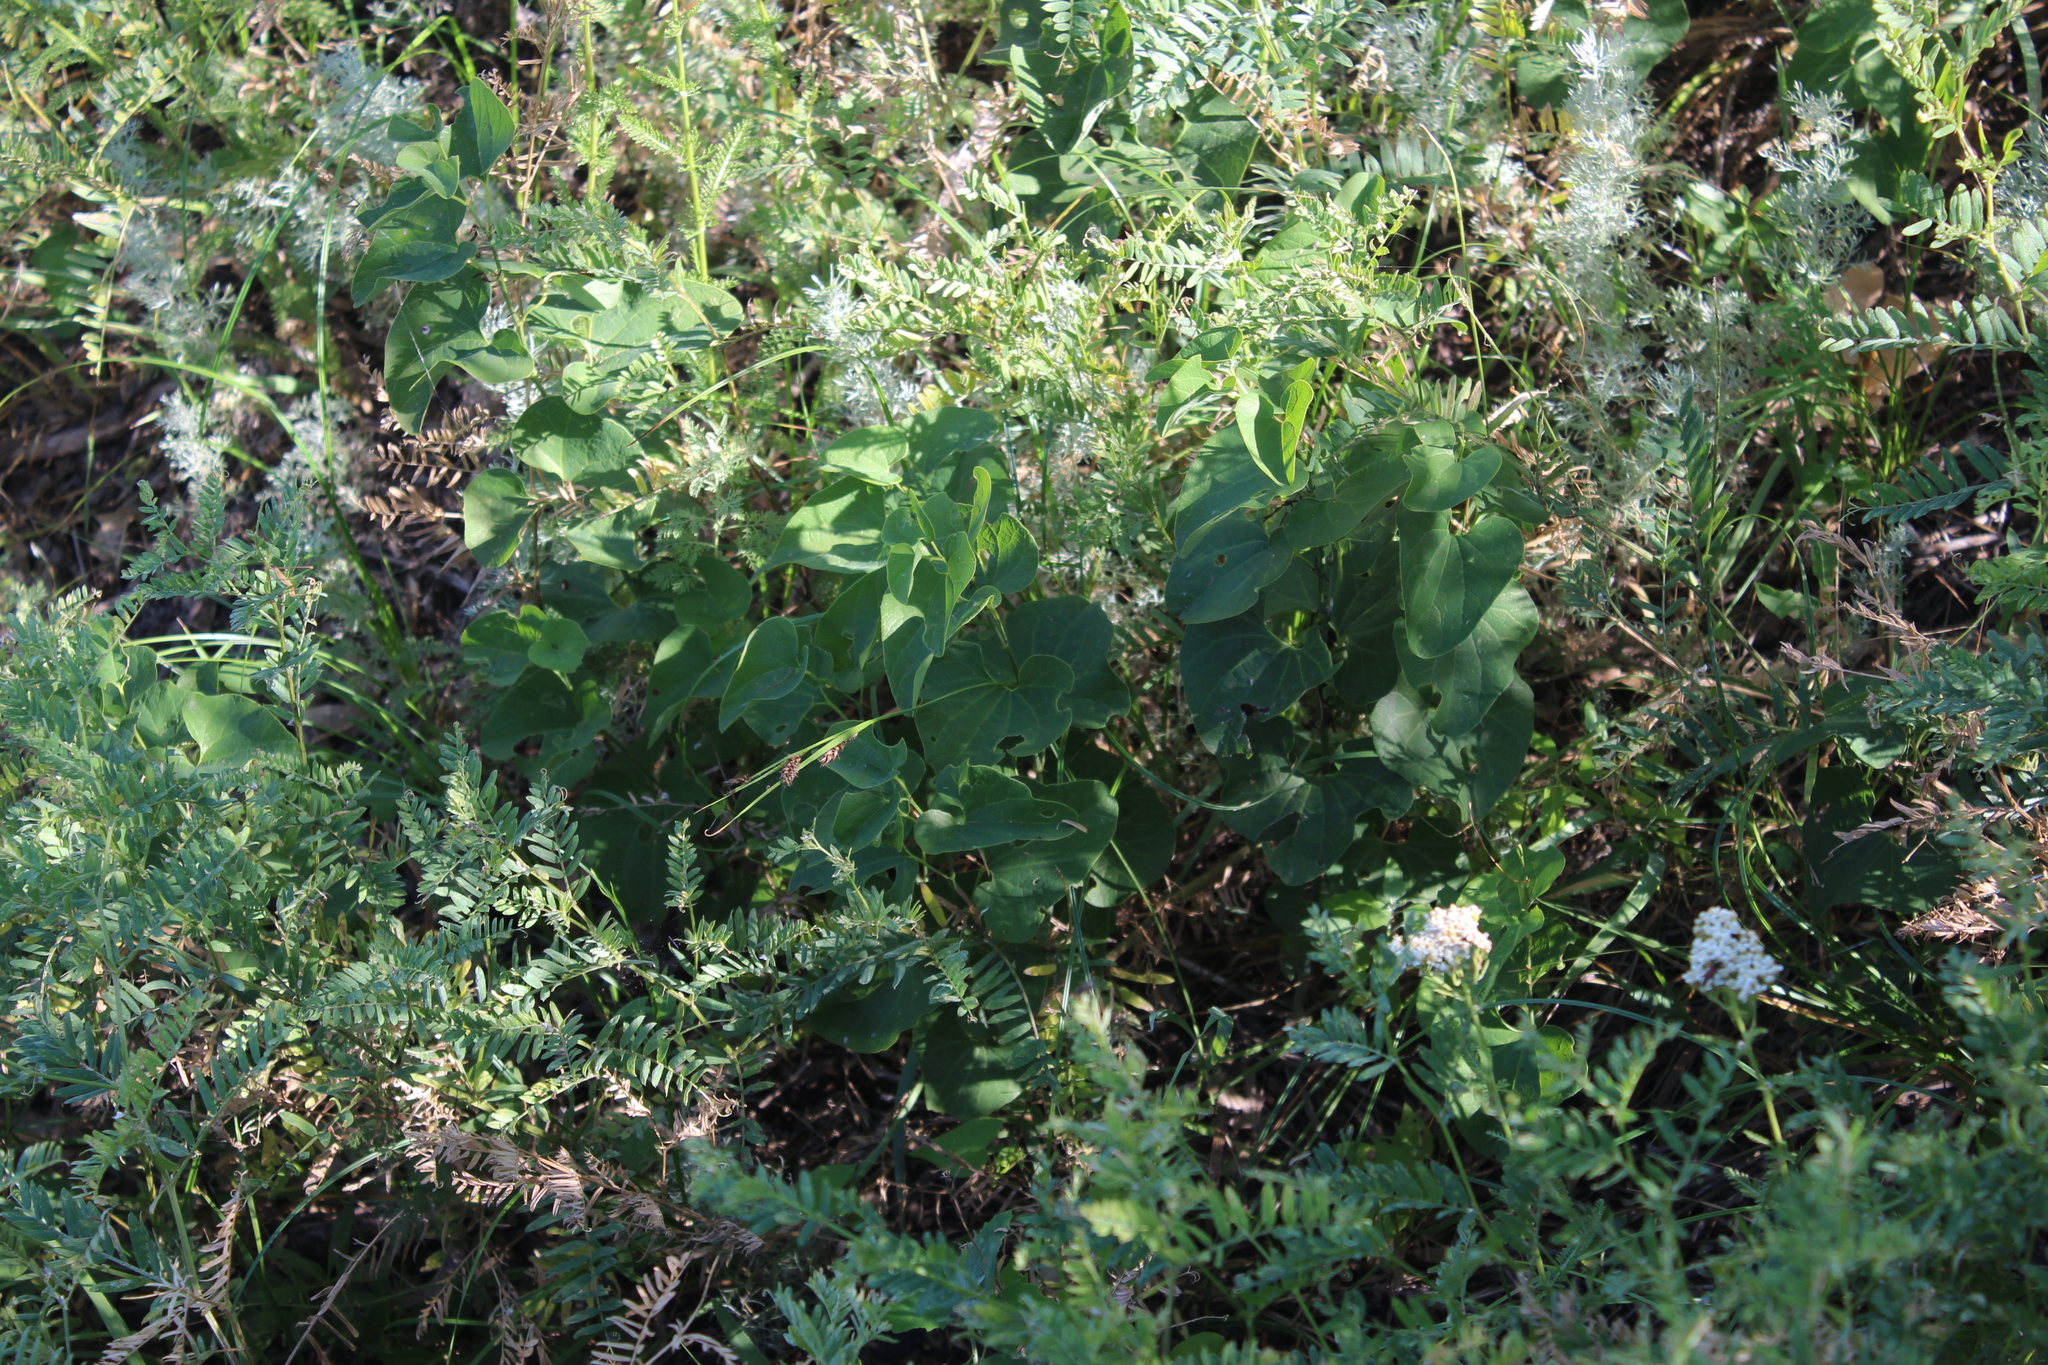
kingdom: Plantae
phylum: Tracheophyta
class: Magnoliopsida
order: Piperales
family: Aristolochiaceae
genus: Aristolochia
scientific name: Aristolochia clematitis
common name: Birthwort
